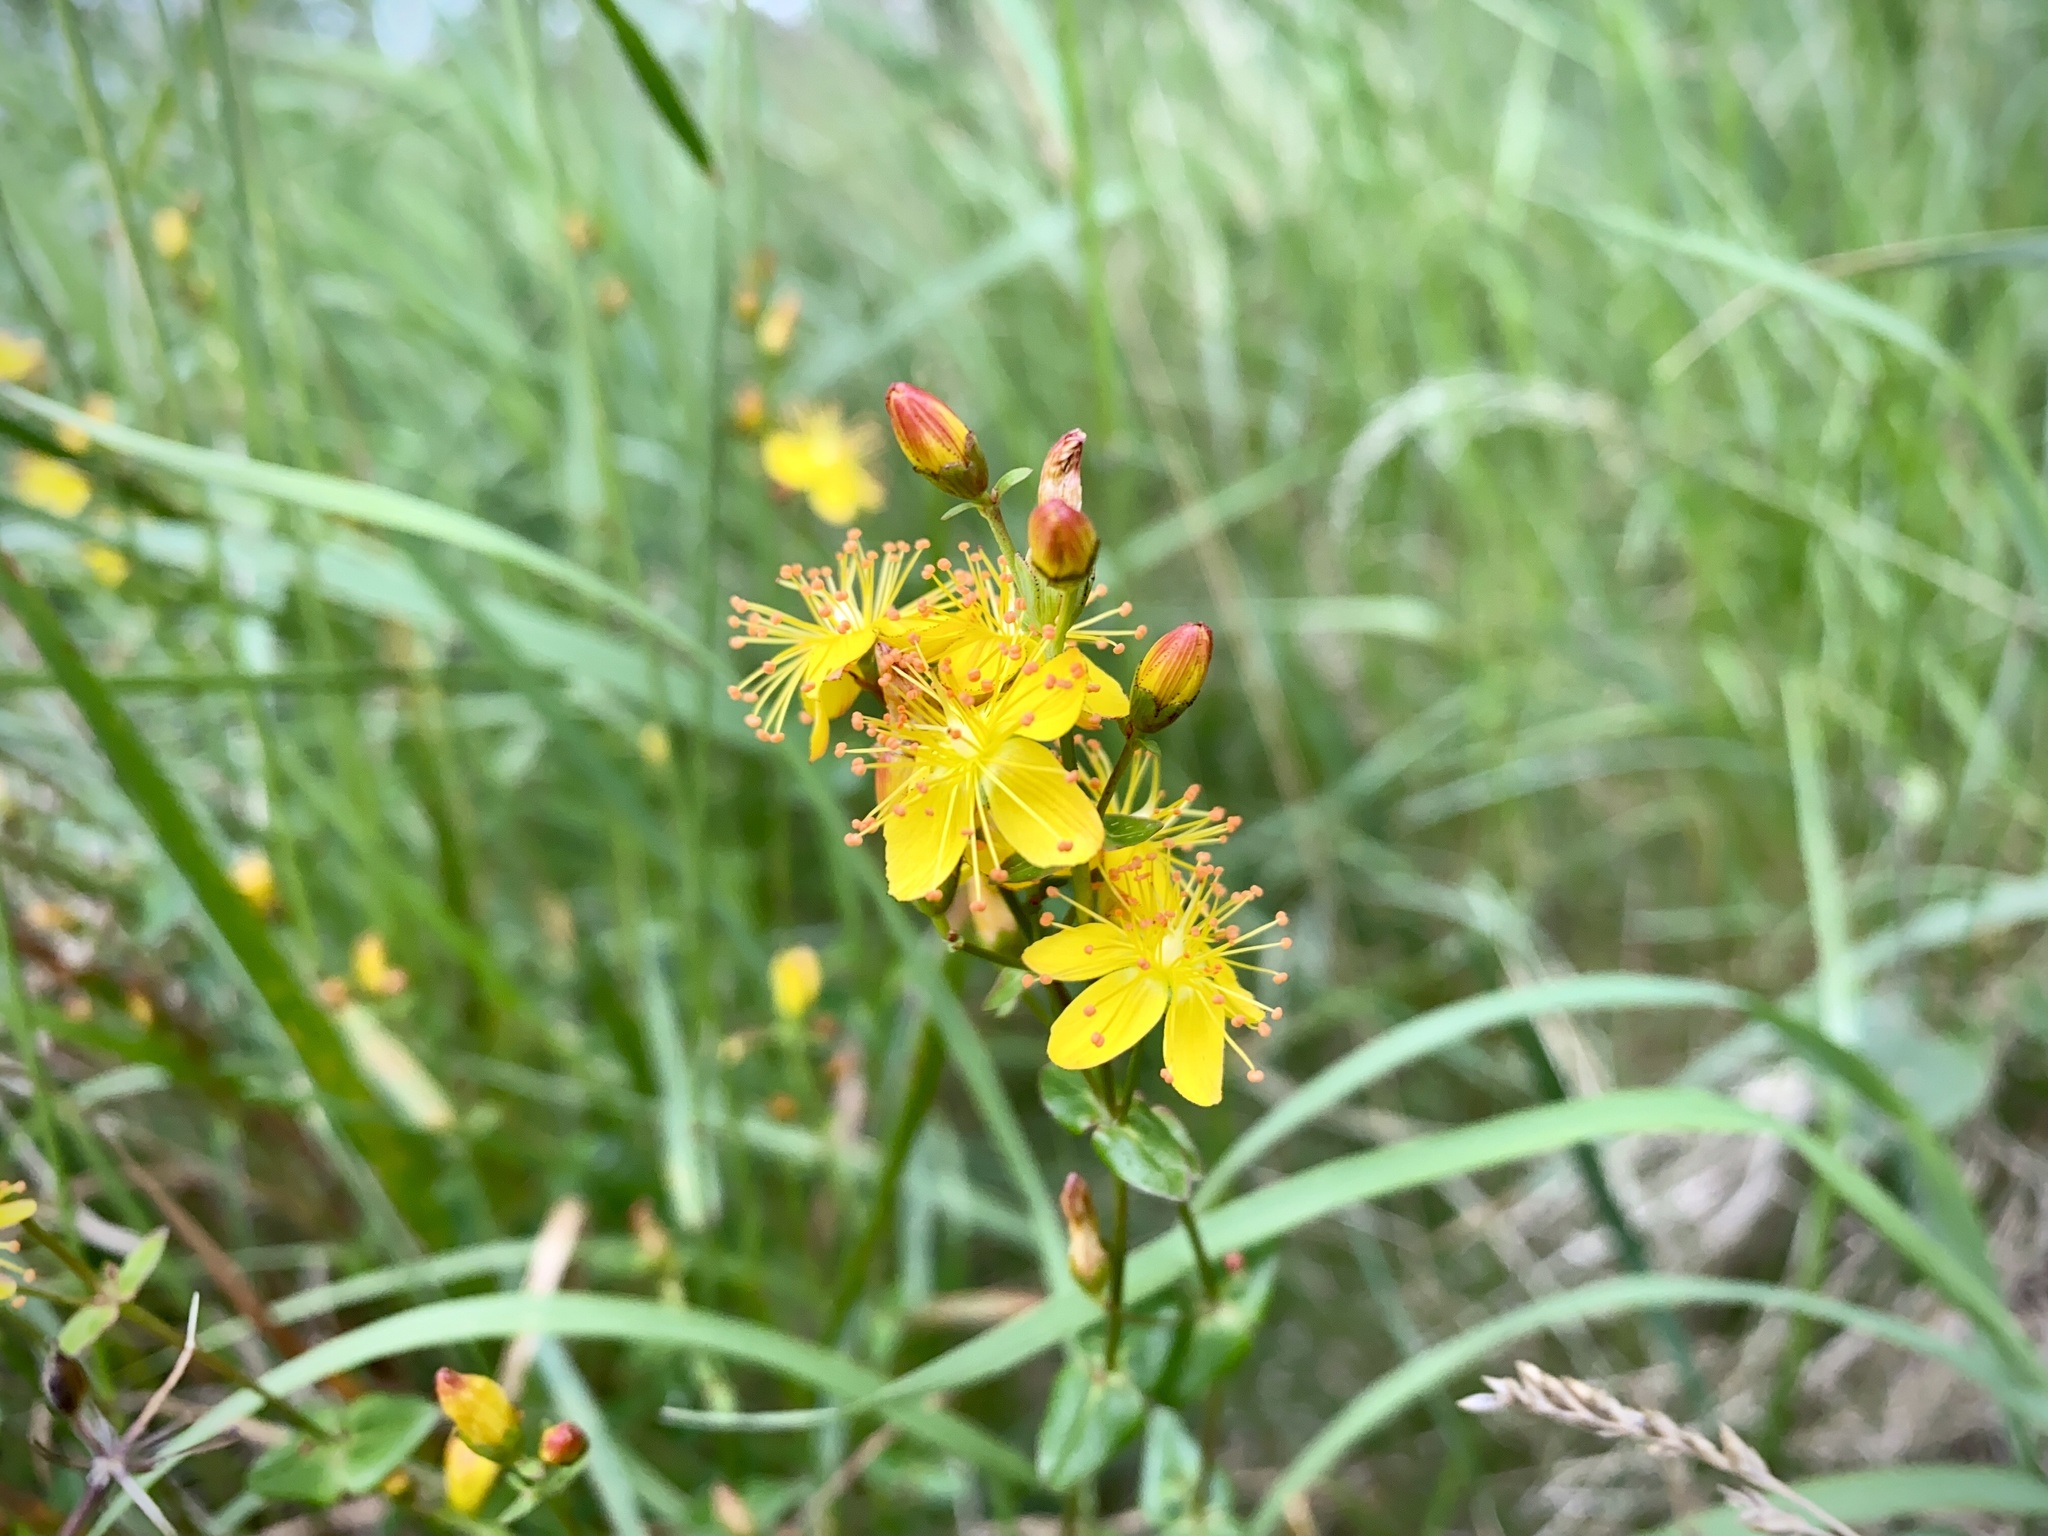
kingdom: Plantae
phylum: Tracheophyta
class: Magnoliopsida
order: Malpighiales
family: Hypericaceae
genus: Hypericum
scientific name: Hypericum pulchrum
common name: Slender st. john's-wort
